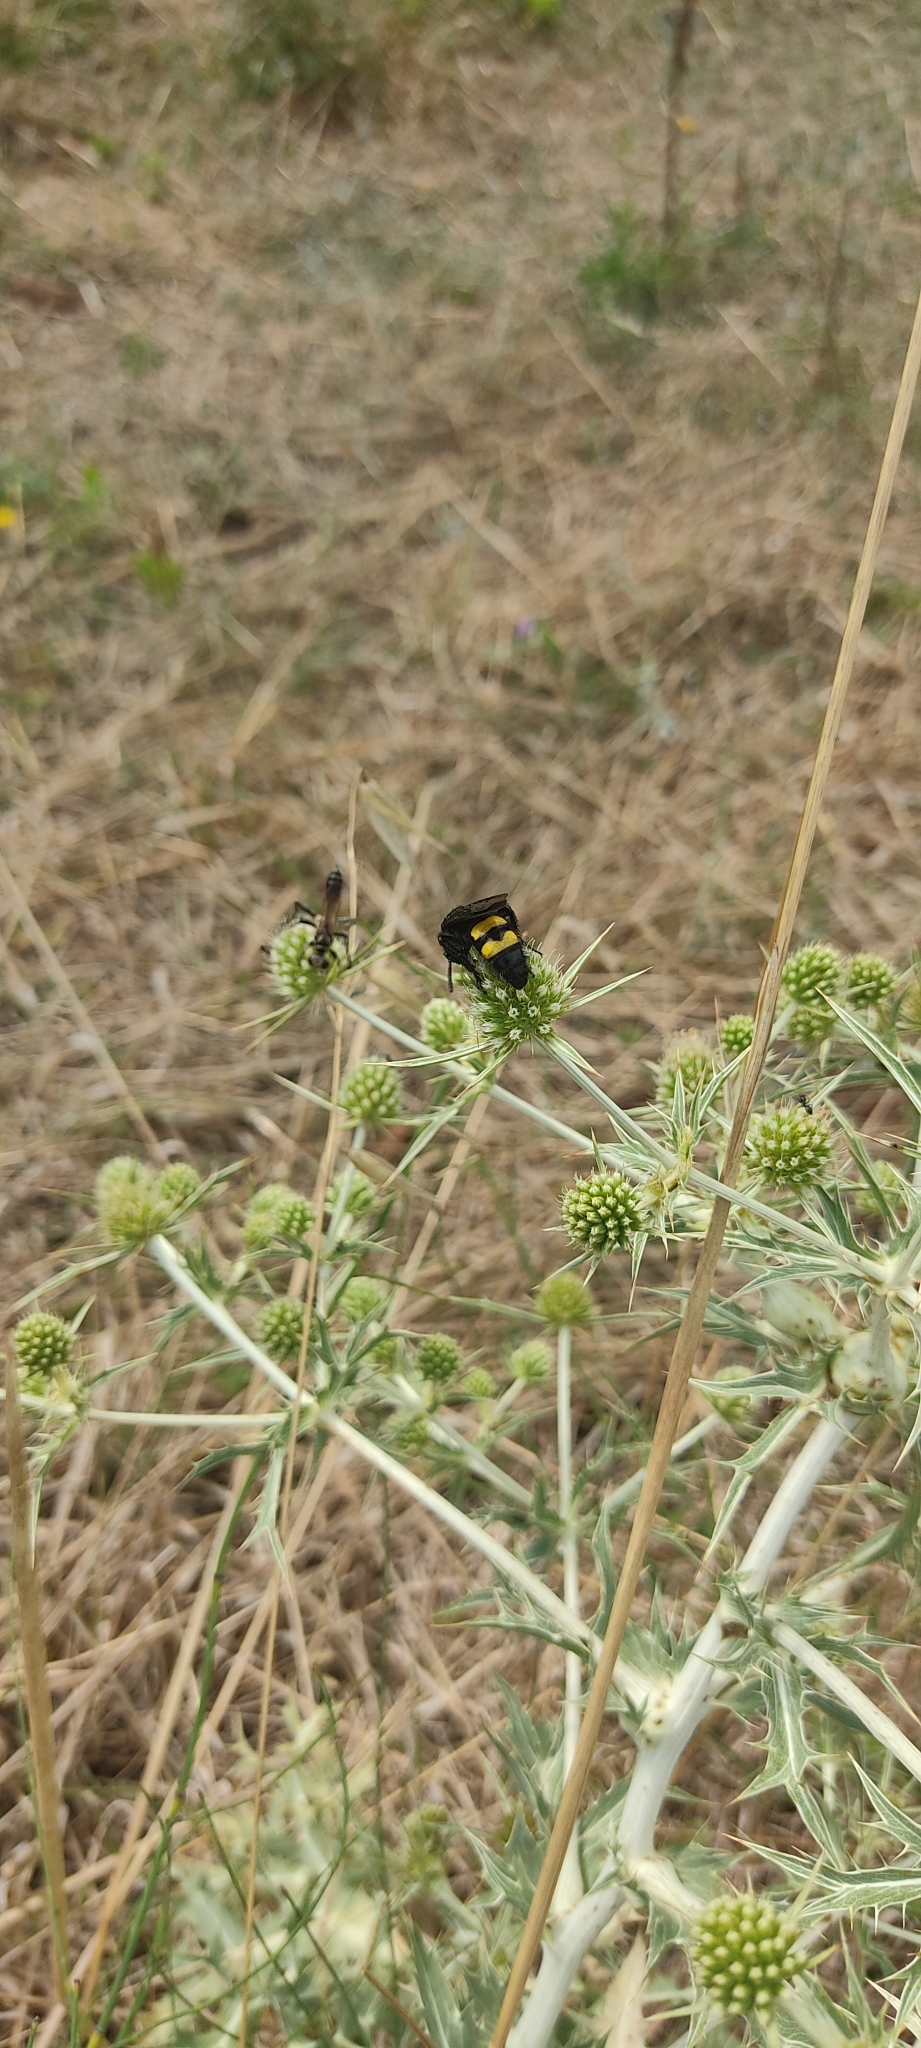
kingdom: Animalia
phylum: Arthropoda
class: Insecta
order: Hymenoptera
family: Scoliidae
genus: Scolia
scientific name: Scolia hirta
